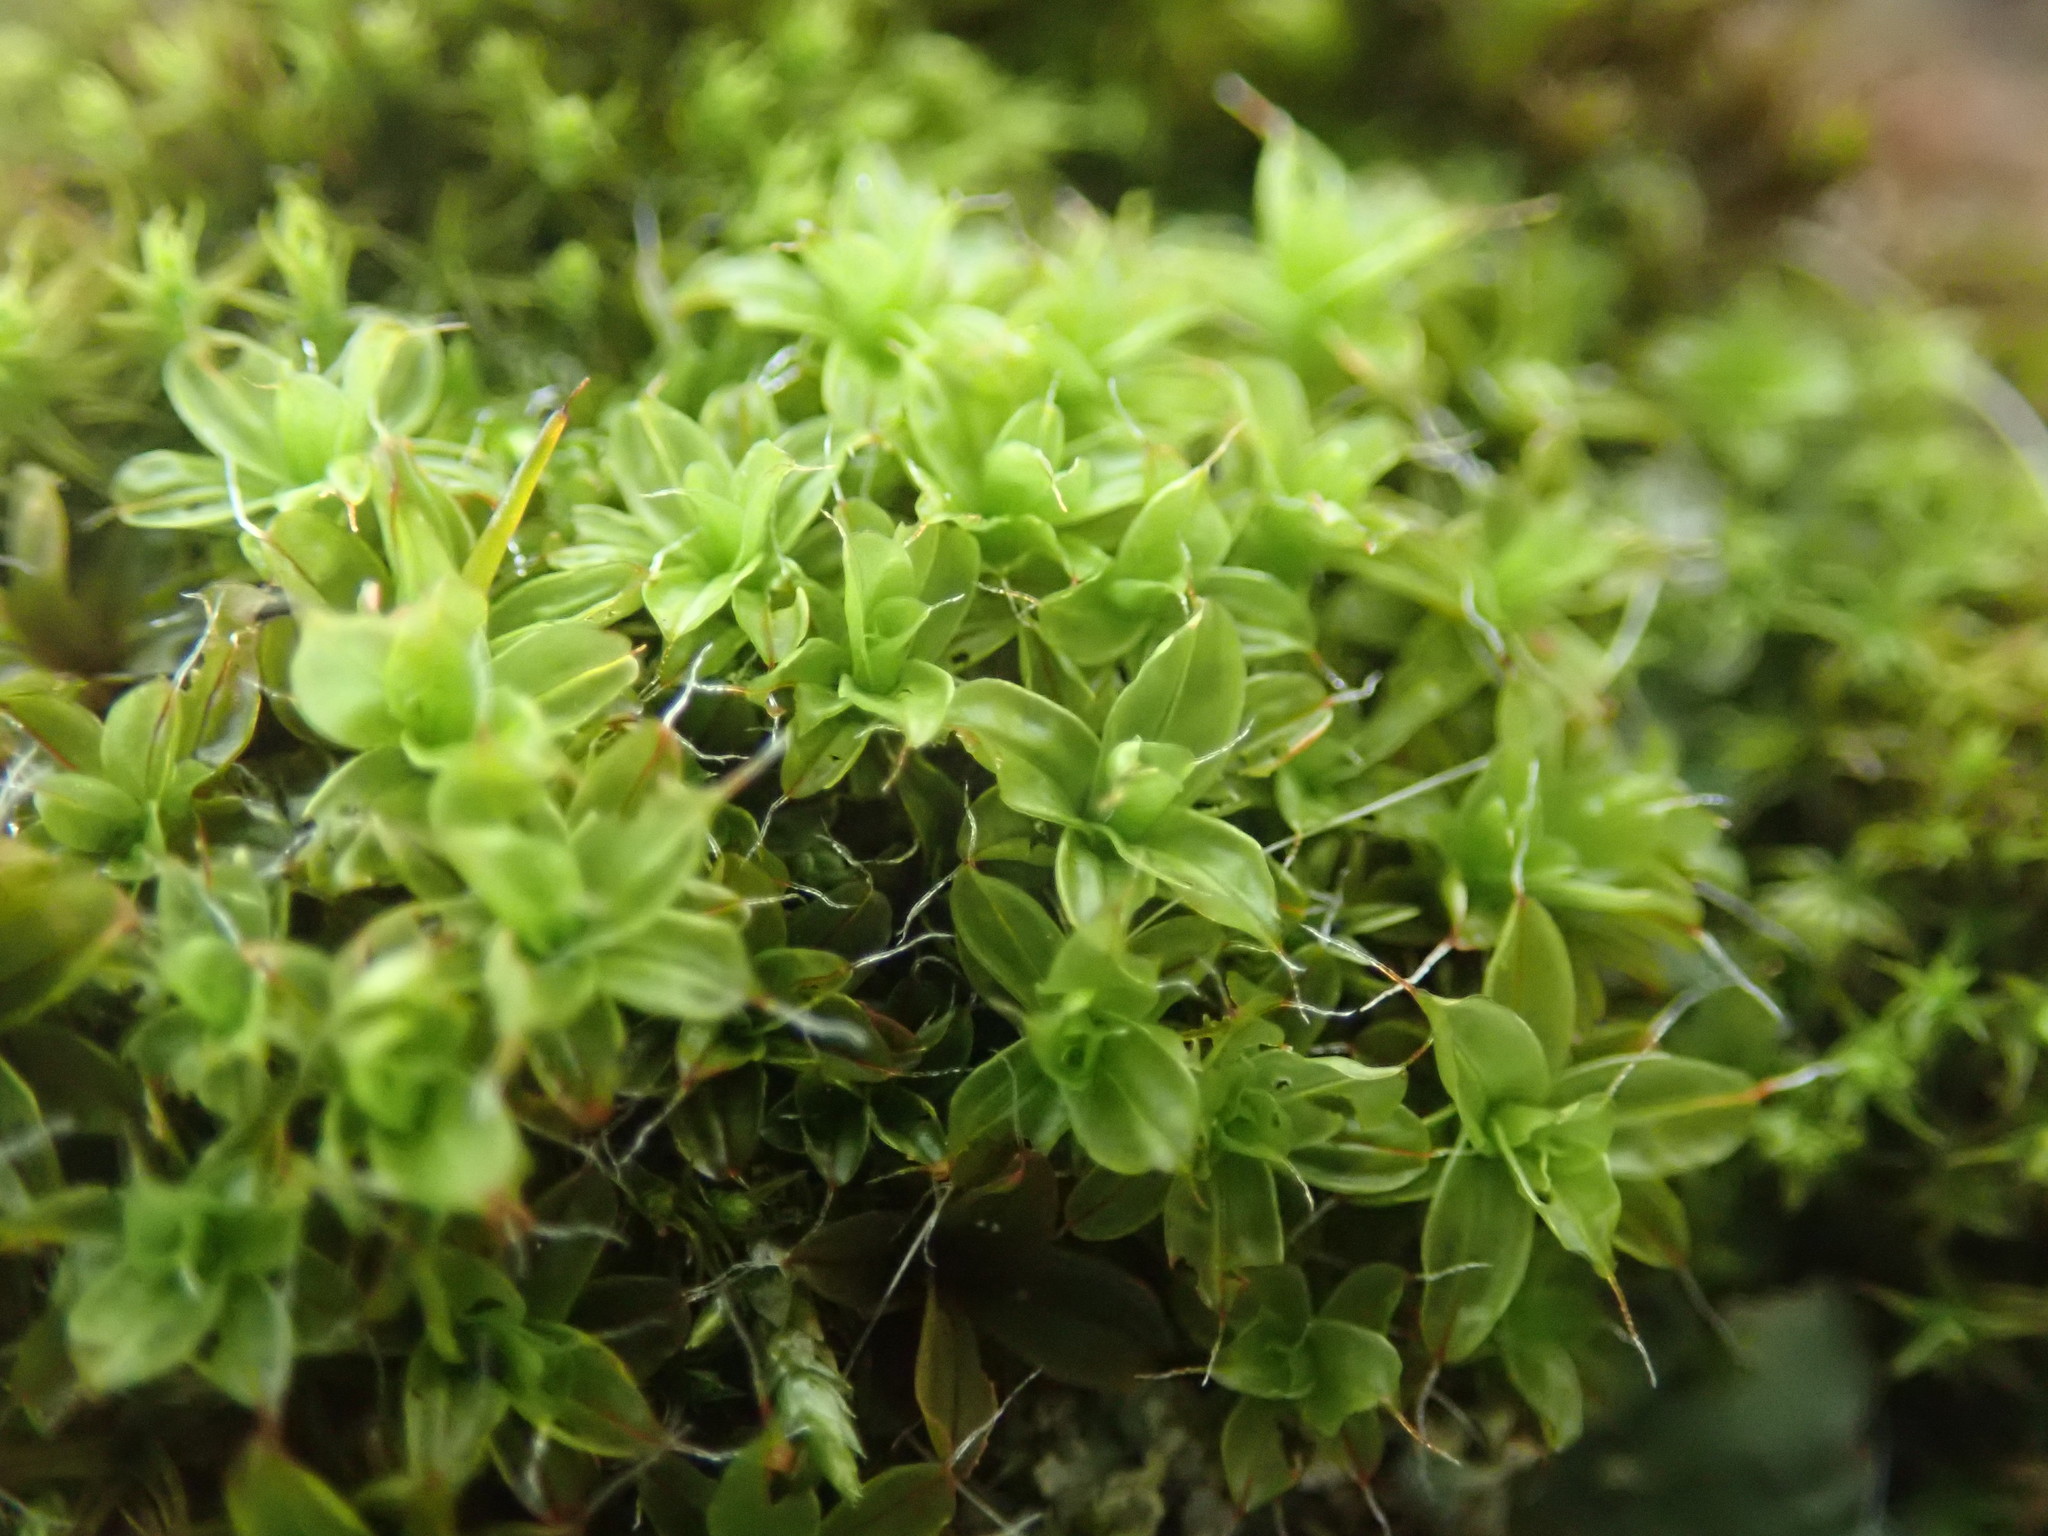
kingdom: Plantae
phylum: Bryophyta
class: Bryopsida
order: Pottiales
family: Pottiaceae
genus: Syntrichia
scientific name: Syntrichia princeps
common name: Brown screw-moss
